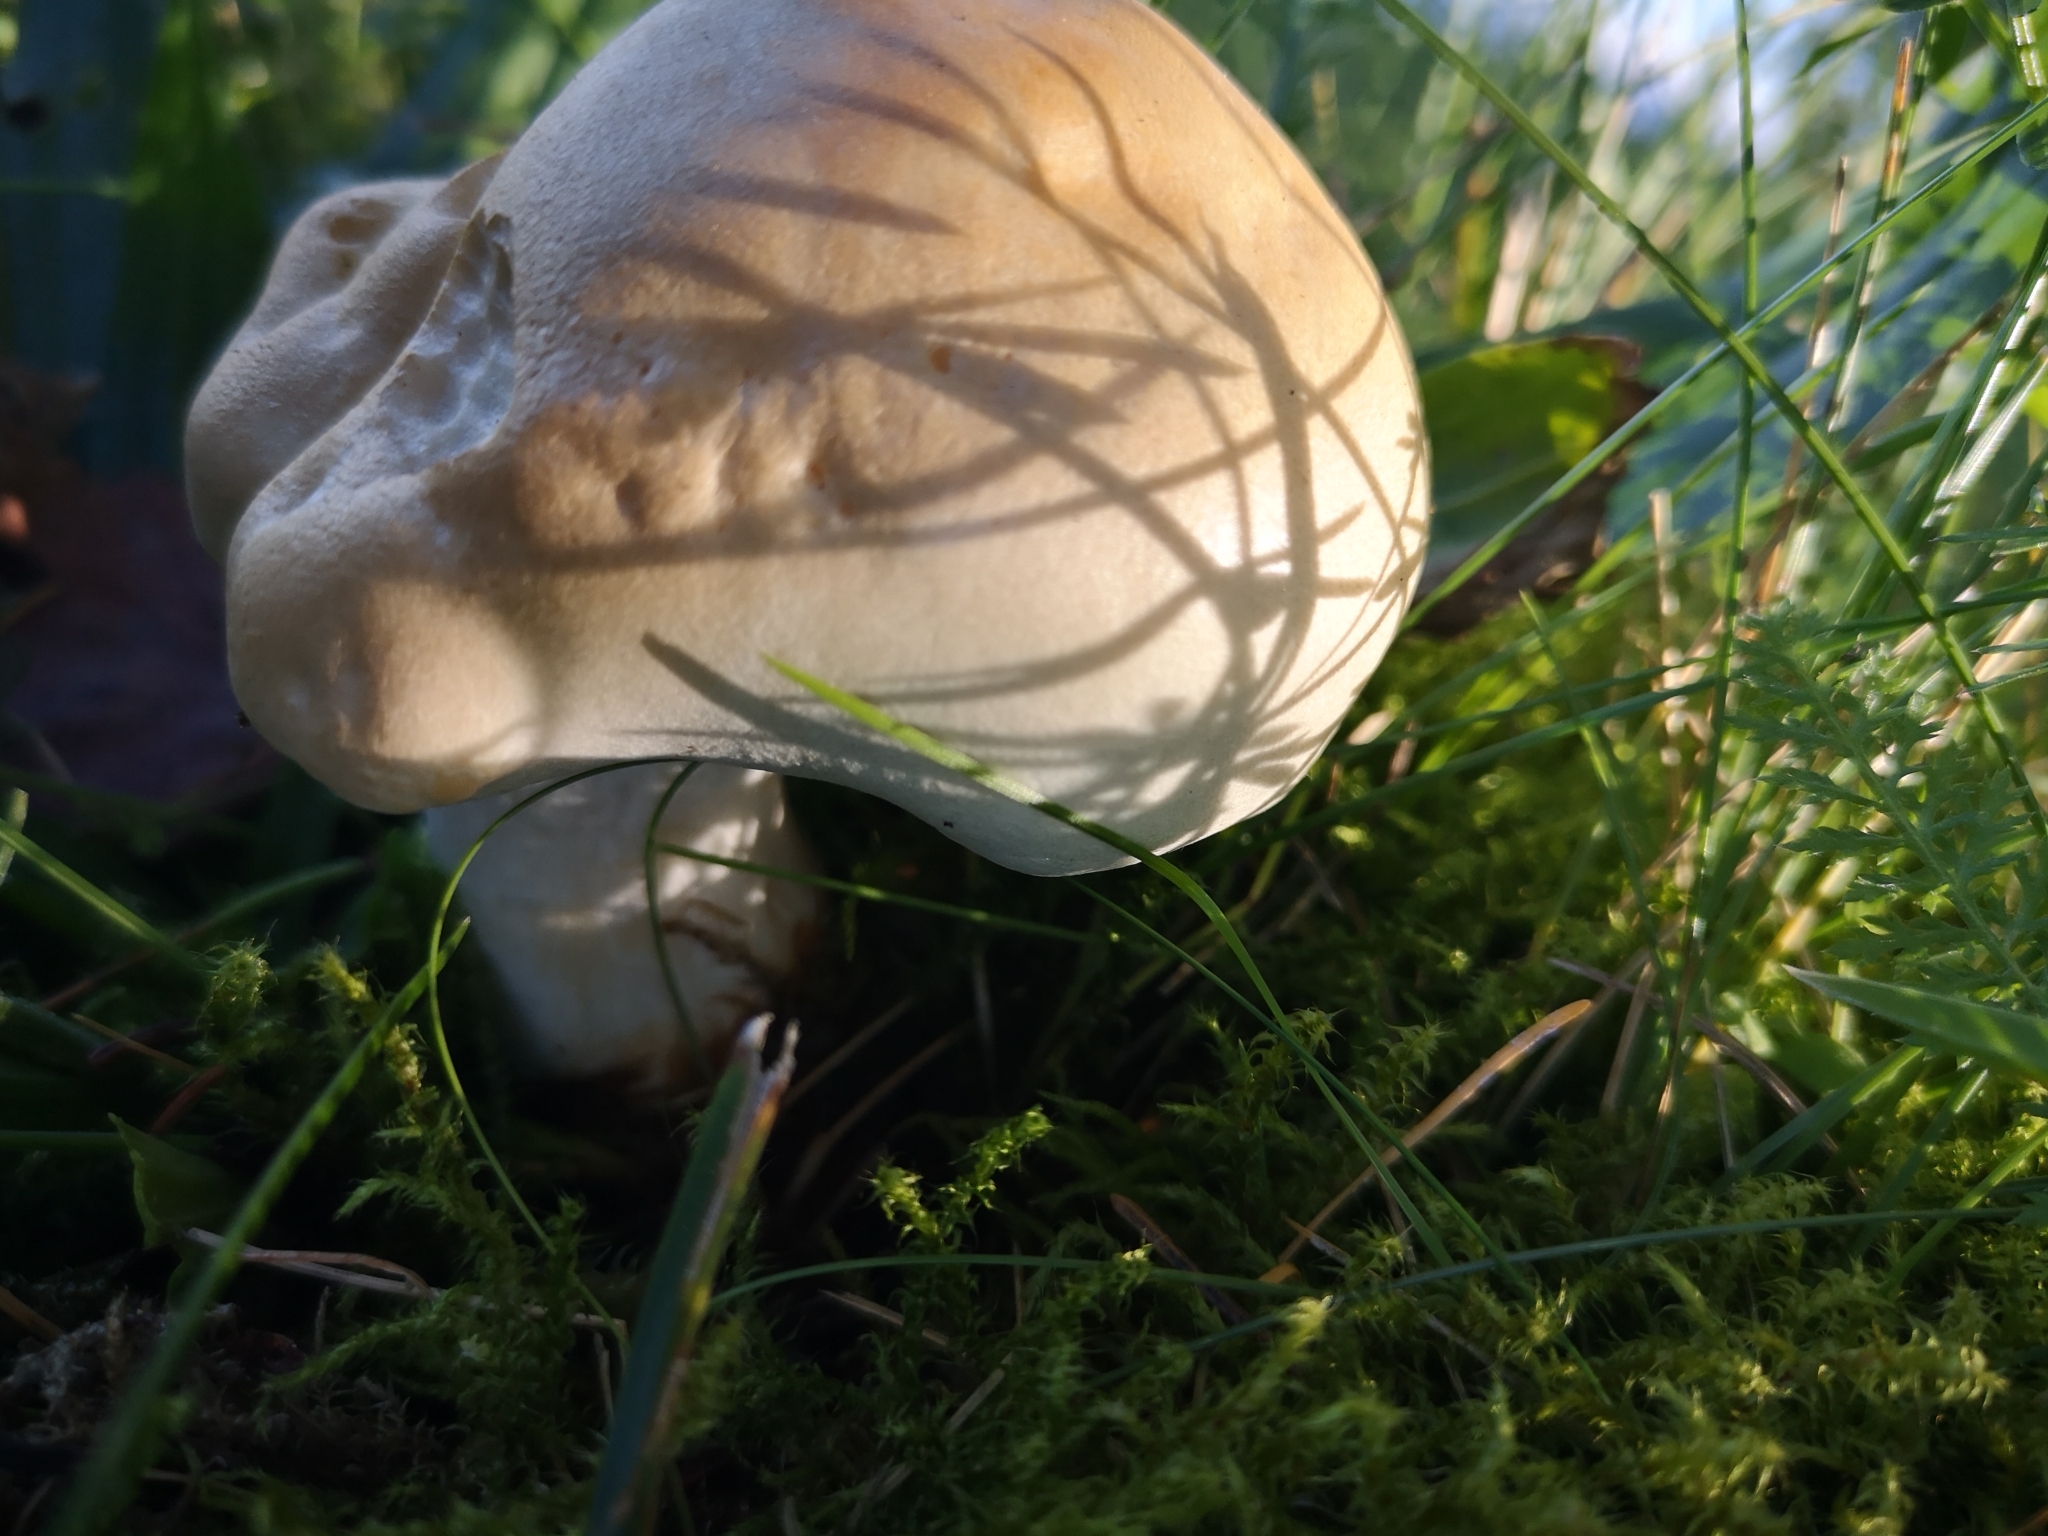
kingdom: Fungi
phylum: Basidiomycota
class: Agaricomycetes
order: Agaricales
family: Tricholomataceae
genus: Tricholoma
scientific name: Tricholoma stiparophyllum
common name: Chemical knight
